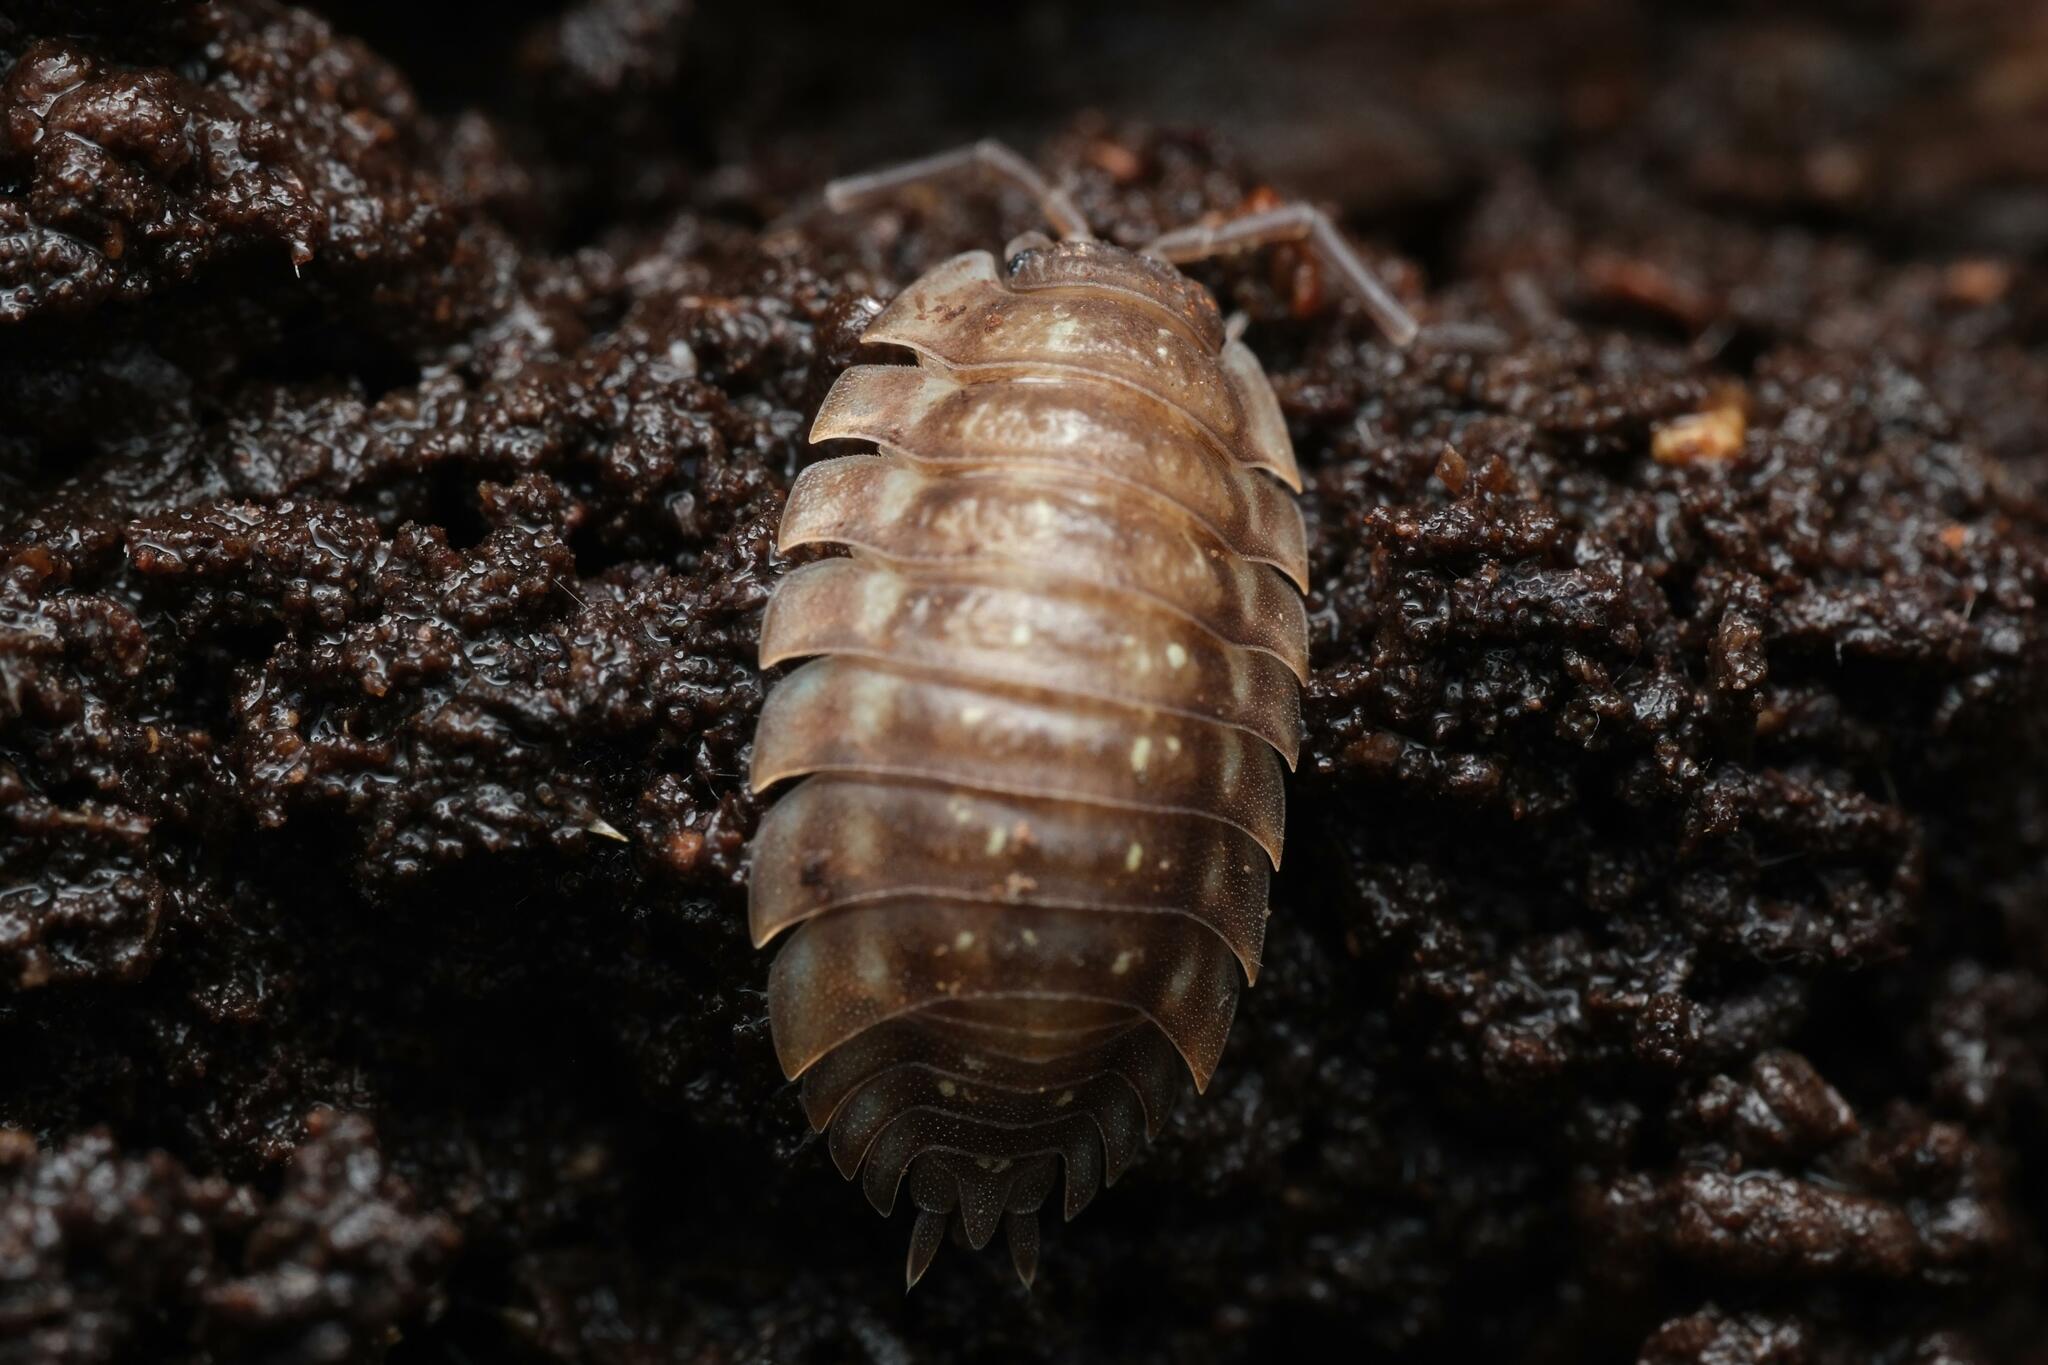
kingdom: Animalia
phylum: Arthropoda
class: Malacostraca
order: Isopoda
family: Oniscidae
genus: Oniscus
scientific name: Oniscus asellus
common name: Common shiny woodlouse
